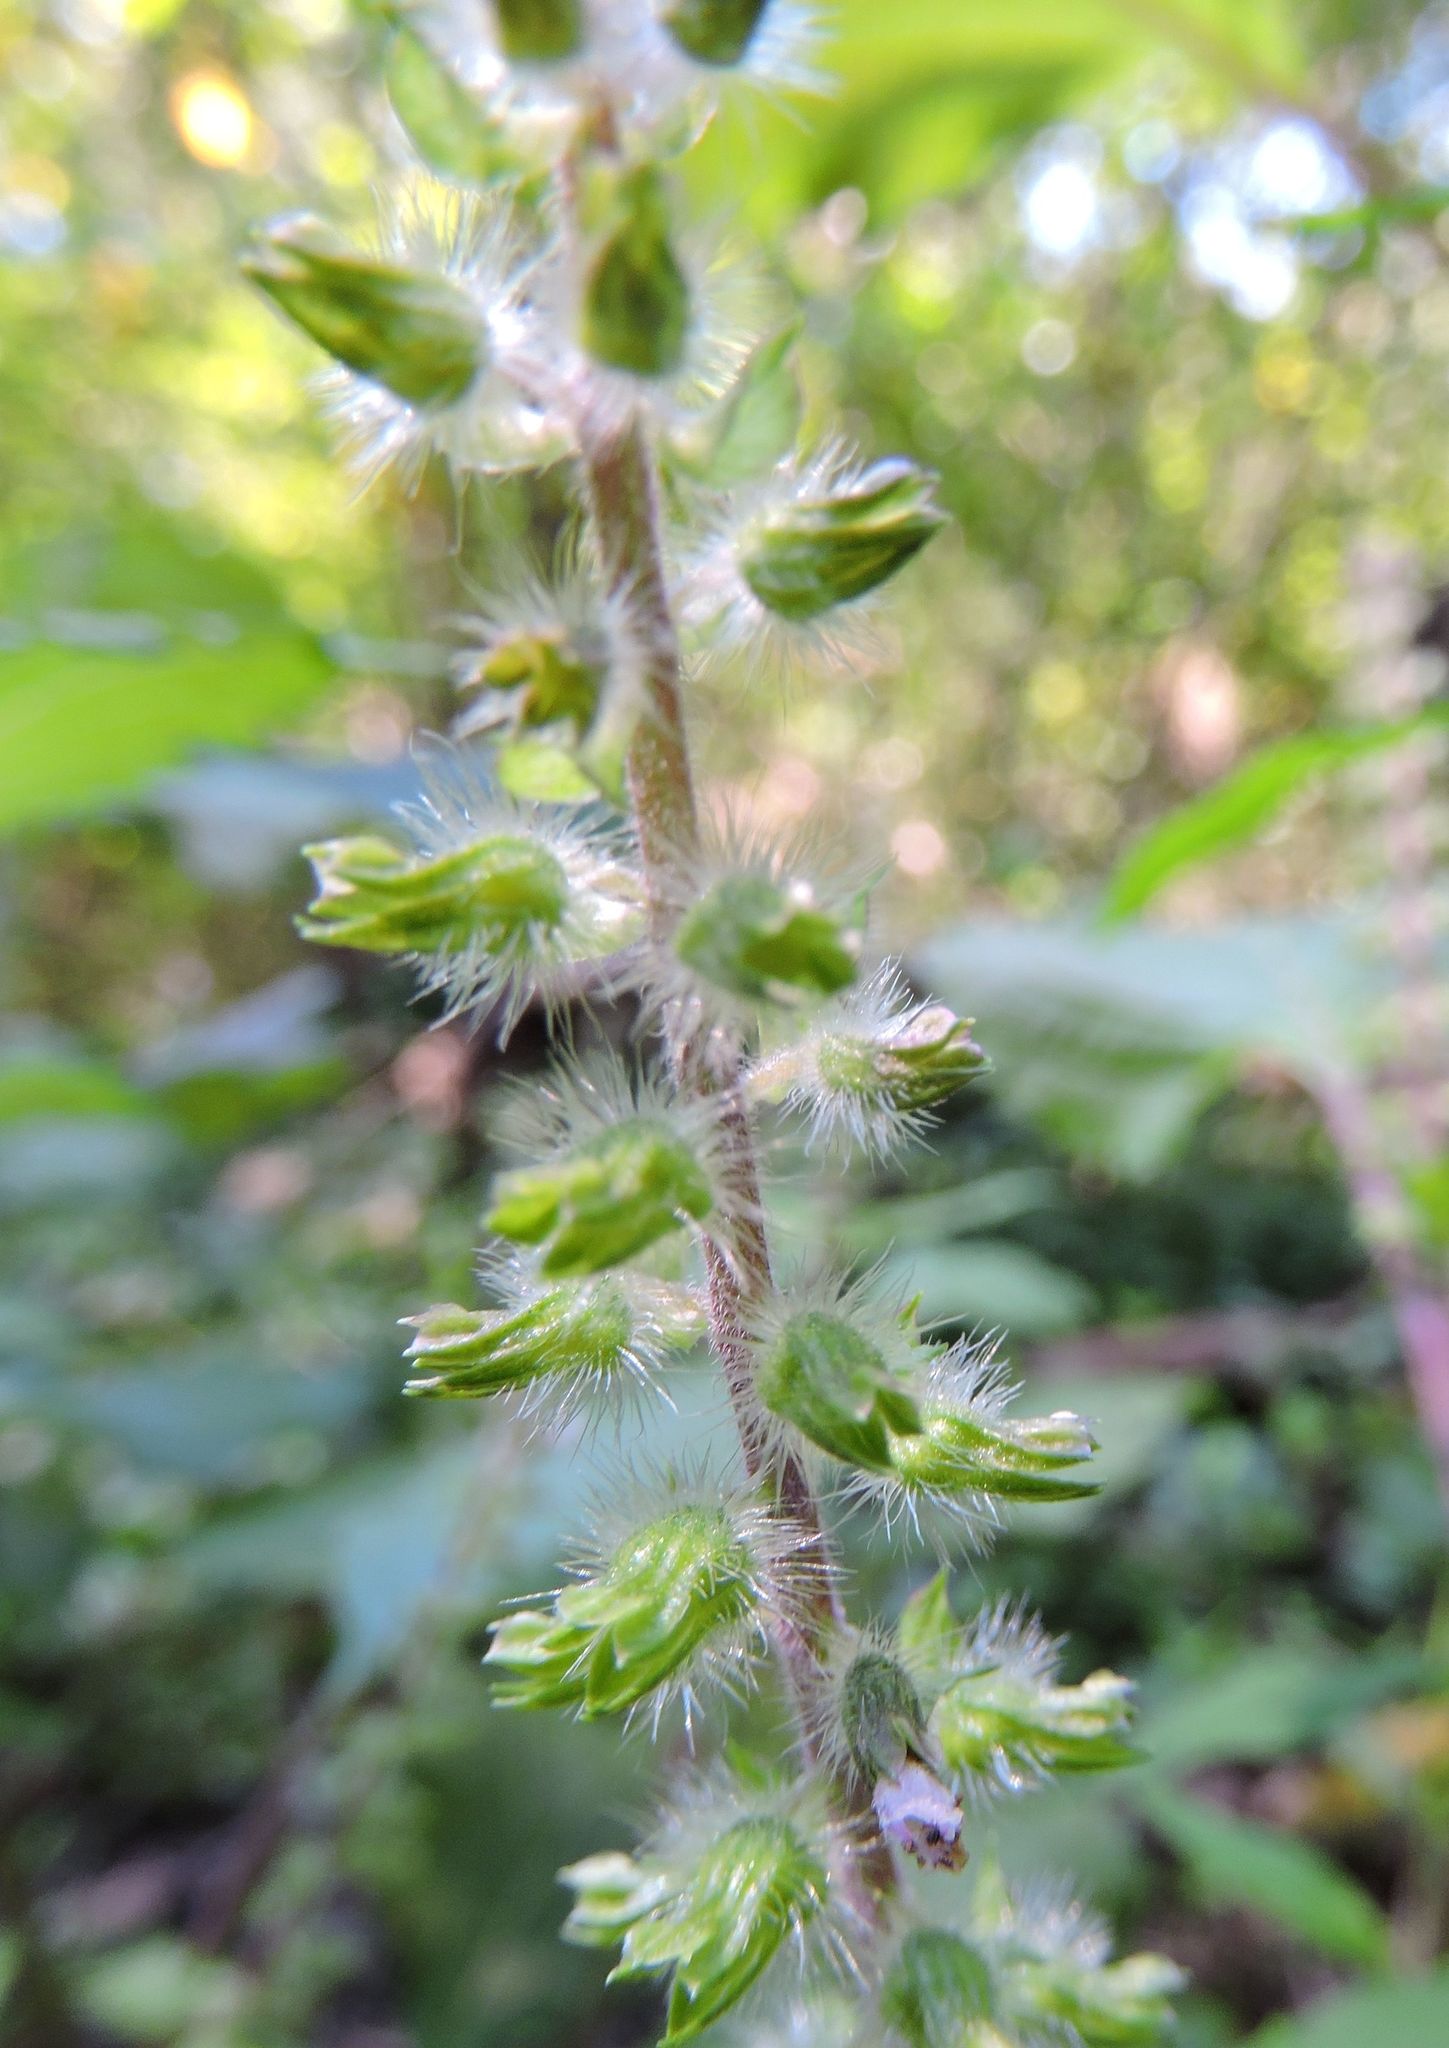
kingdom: Plantae
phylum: Tracheophyta
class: Magnoliopsida
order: Lamiales
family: Lamiaceae
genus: Perilla
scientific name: Perilla frutescens
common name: Perilla
